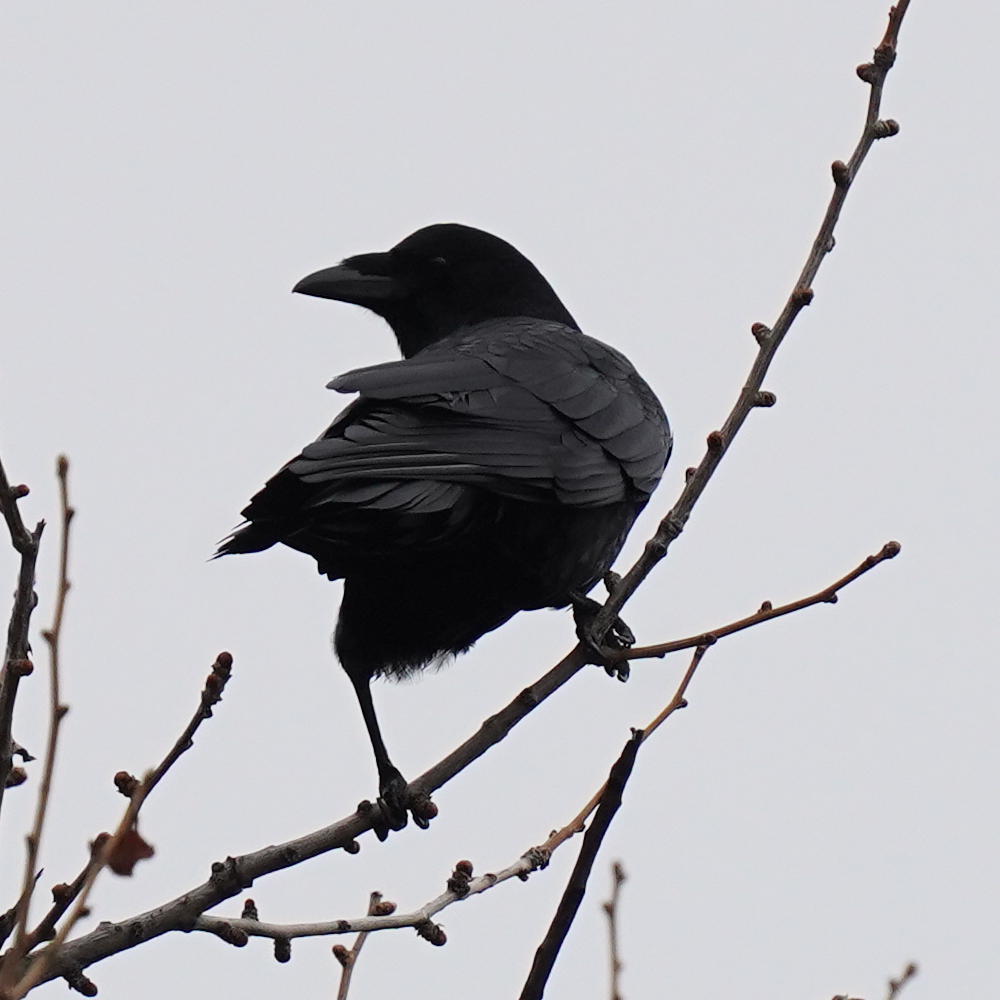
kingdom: Animalia
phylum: Chordata
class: Aves
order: Passeriformes
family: Corvidae
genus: Corvus
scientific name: Corvus brachyrhynchos
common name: American crow
